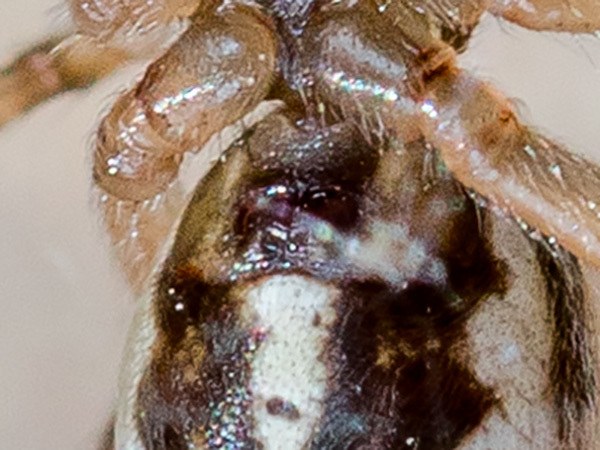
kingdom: Animalia
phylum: Arthropoda
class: Arachnida
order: Araneae
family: Theridiidae
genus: Steatoda
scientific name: Steatoda albomaculata
